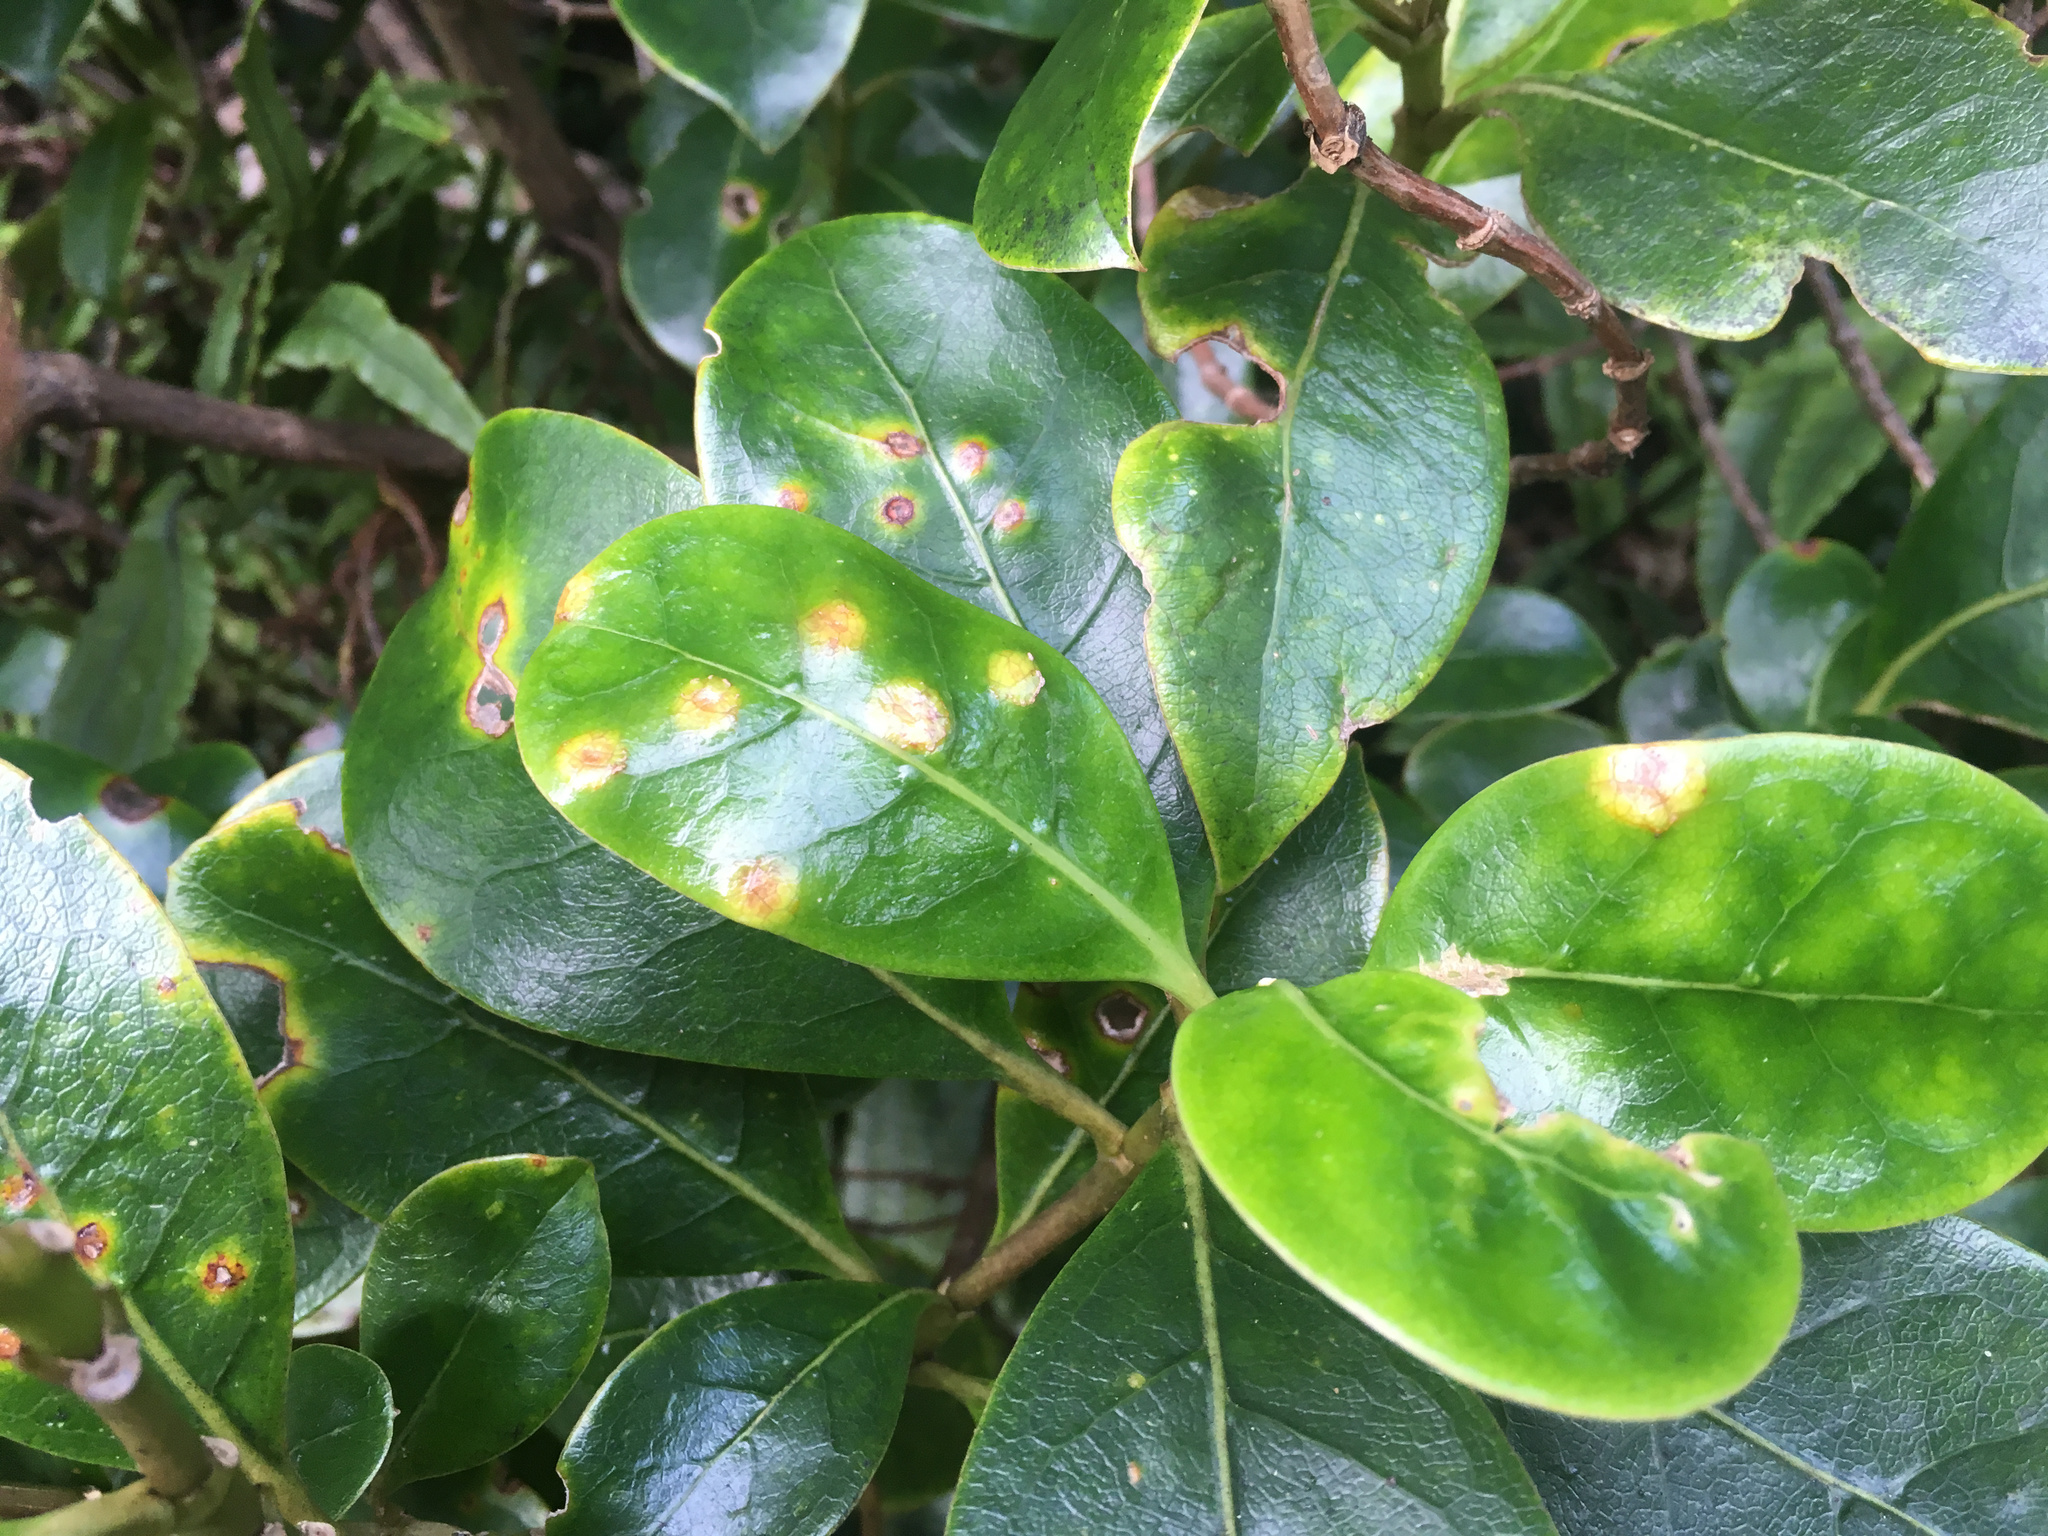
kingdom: Fungi
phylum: Basidiomycota
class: Pucciniomycetes
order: Pucciniales
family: Pucciniaceae
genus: Puccinia
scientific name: Puccinia coprosmae
